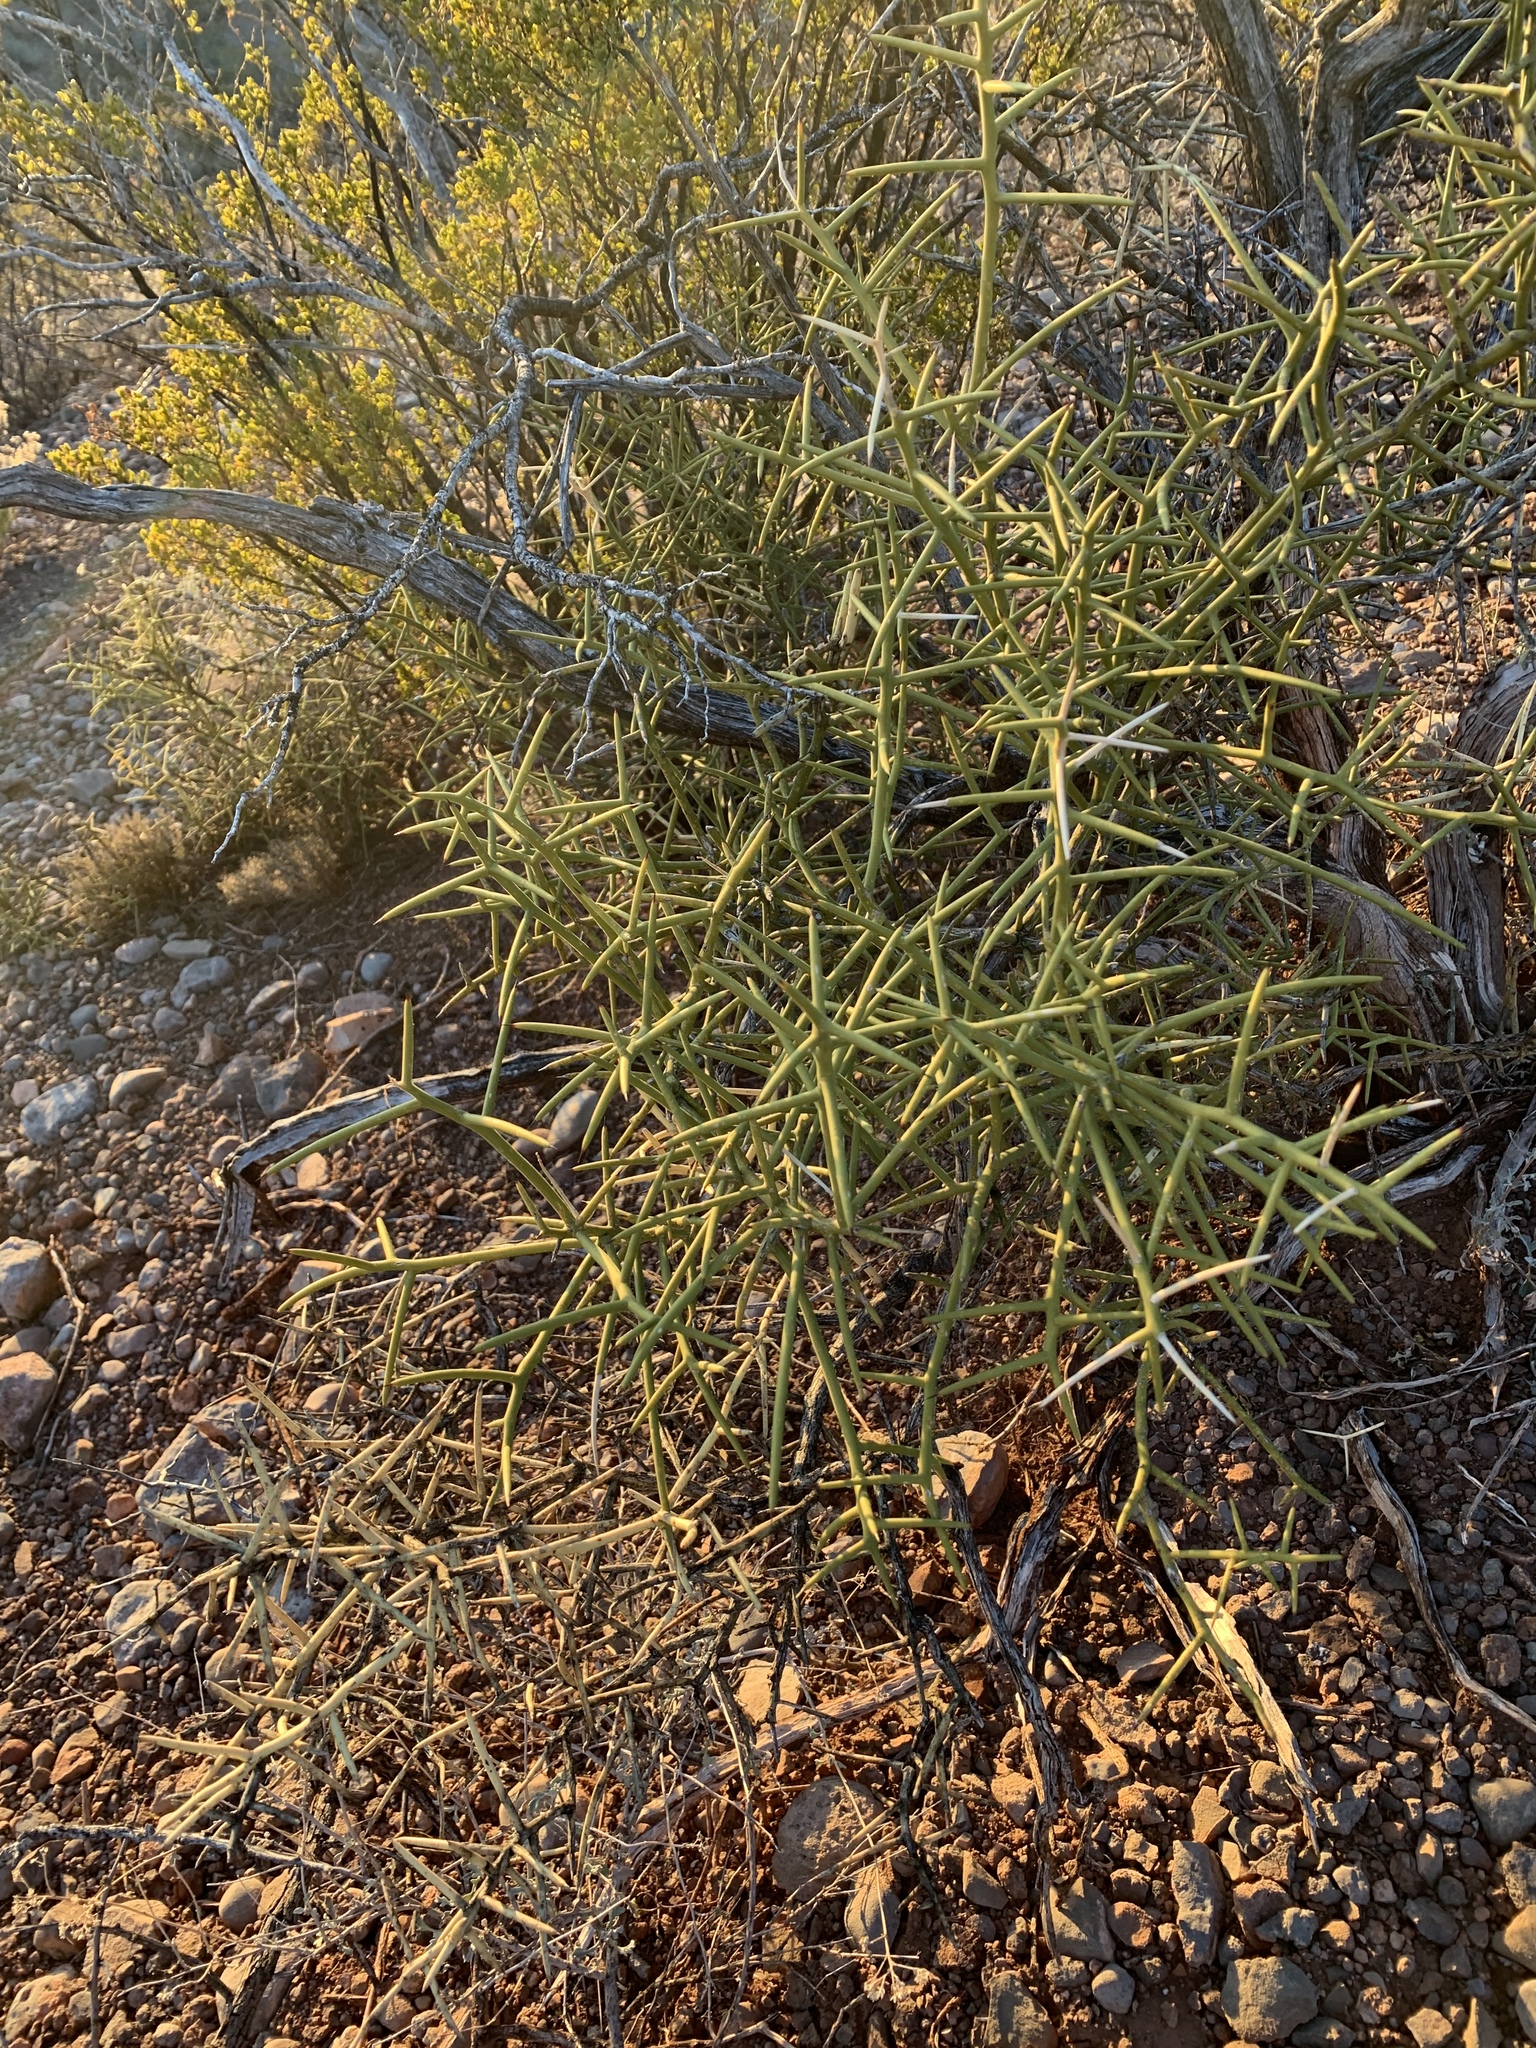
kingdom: Plantae
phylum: Tracheophyta
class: Magnoliopsida
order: Brassicales
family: Koeberliniaceae
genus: Koeberlinia
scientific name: Koeberlinia spinosa
